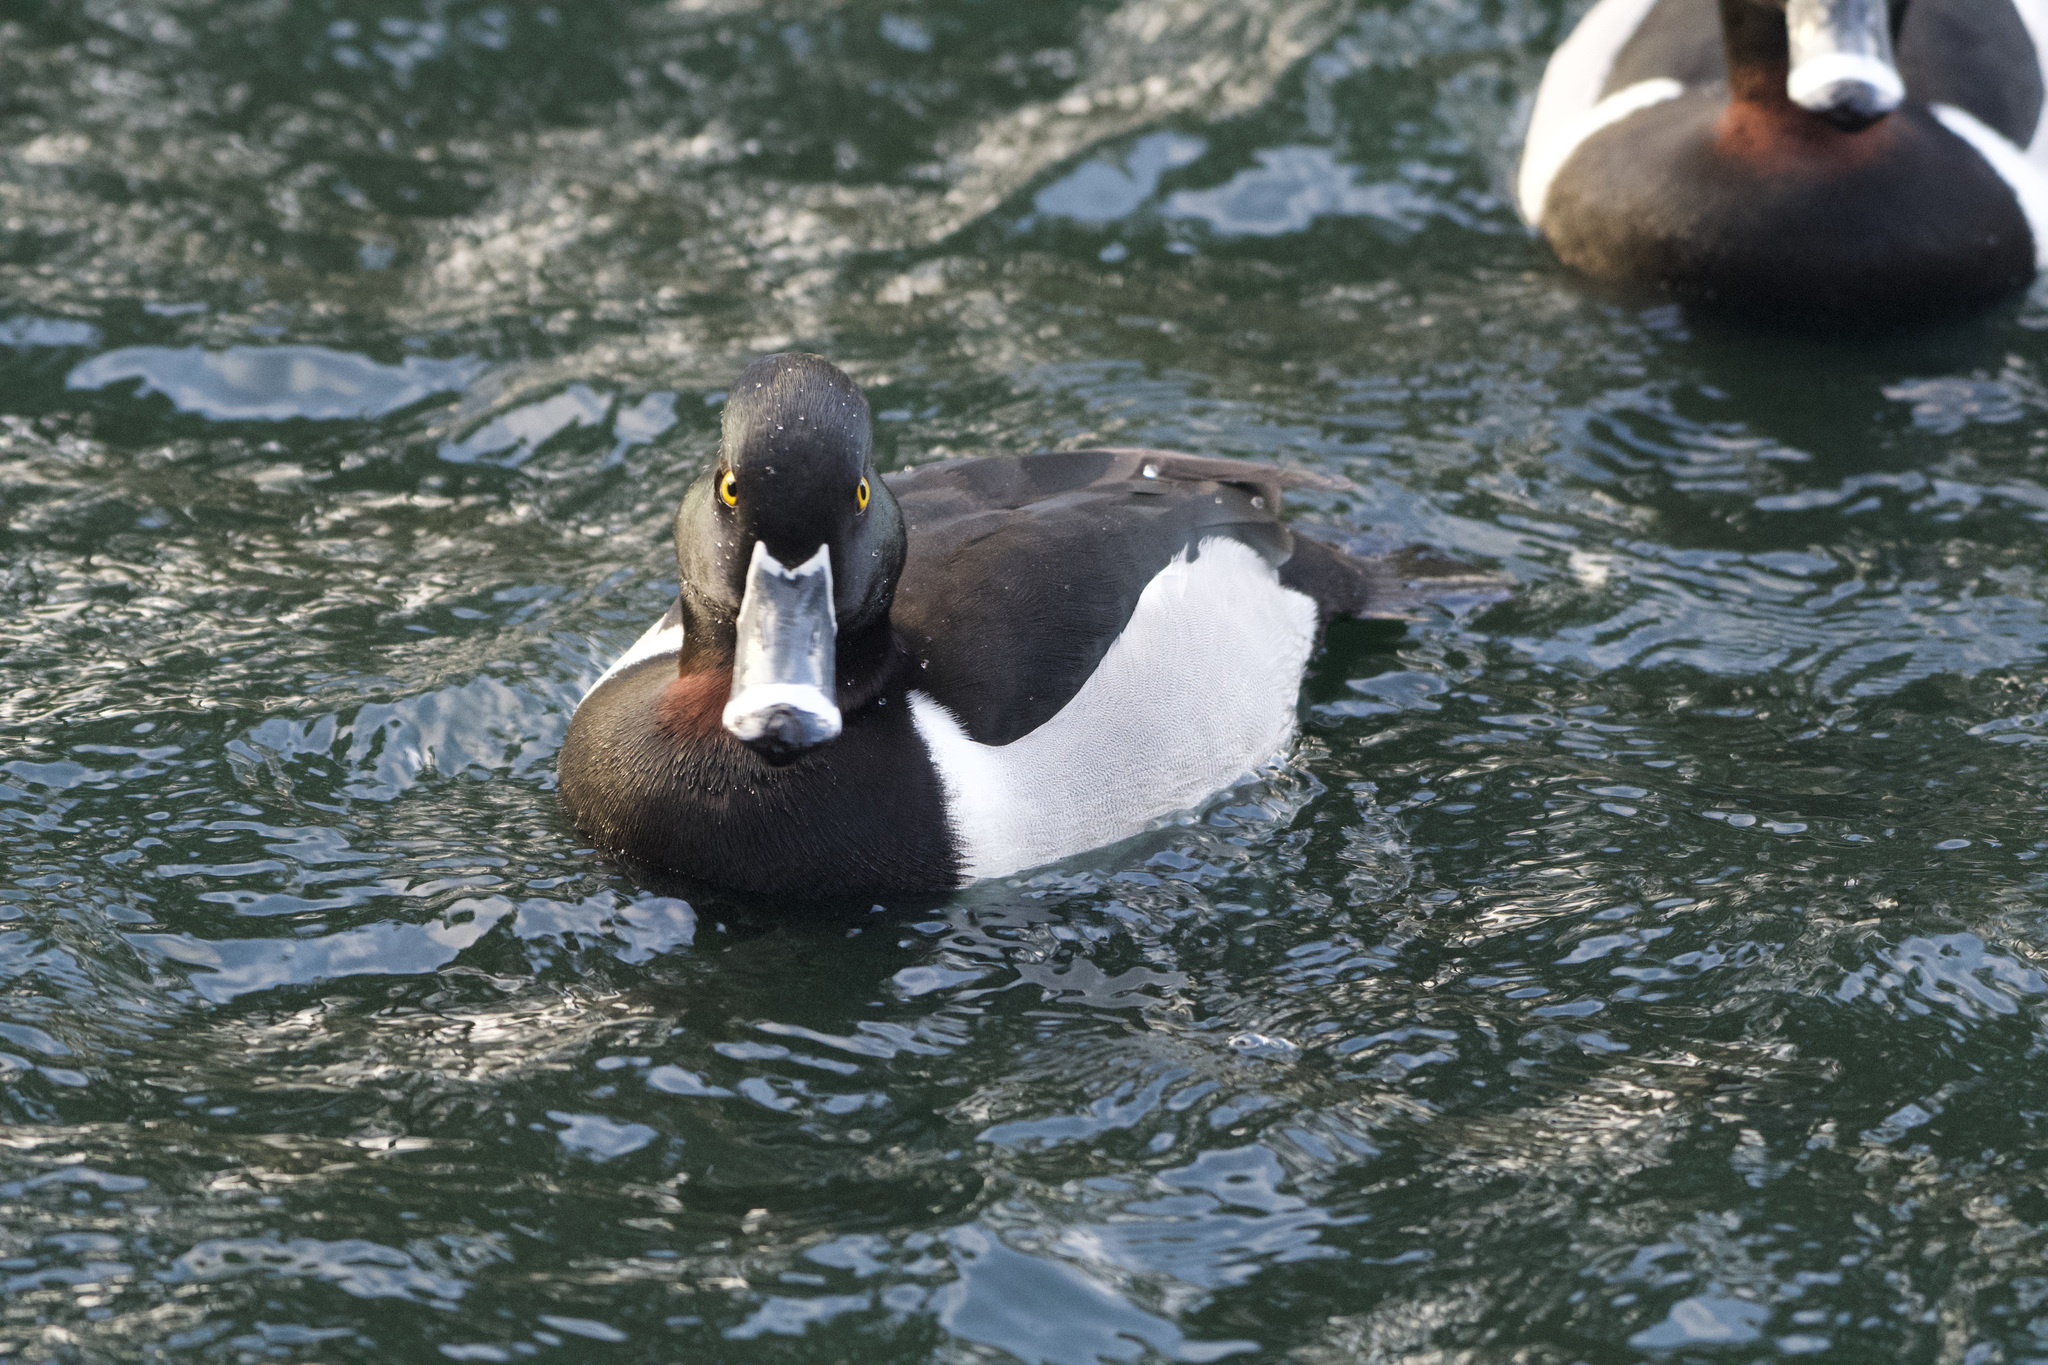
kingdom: Animalia
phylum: Chordata
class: Aves
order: Anseriformes
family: Anatidae
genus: Aythya
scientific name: Aythya collaris
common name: Ring-necked duck
